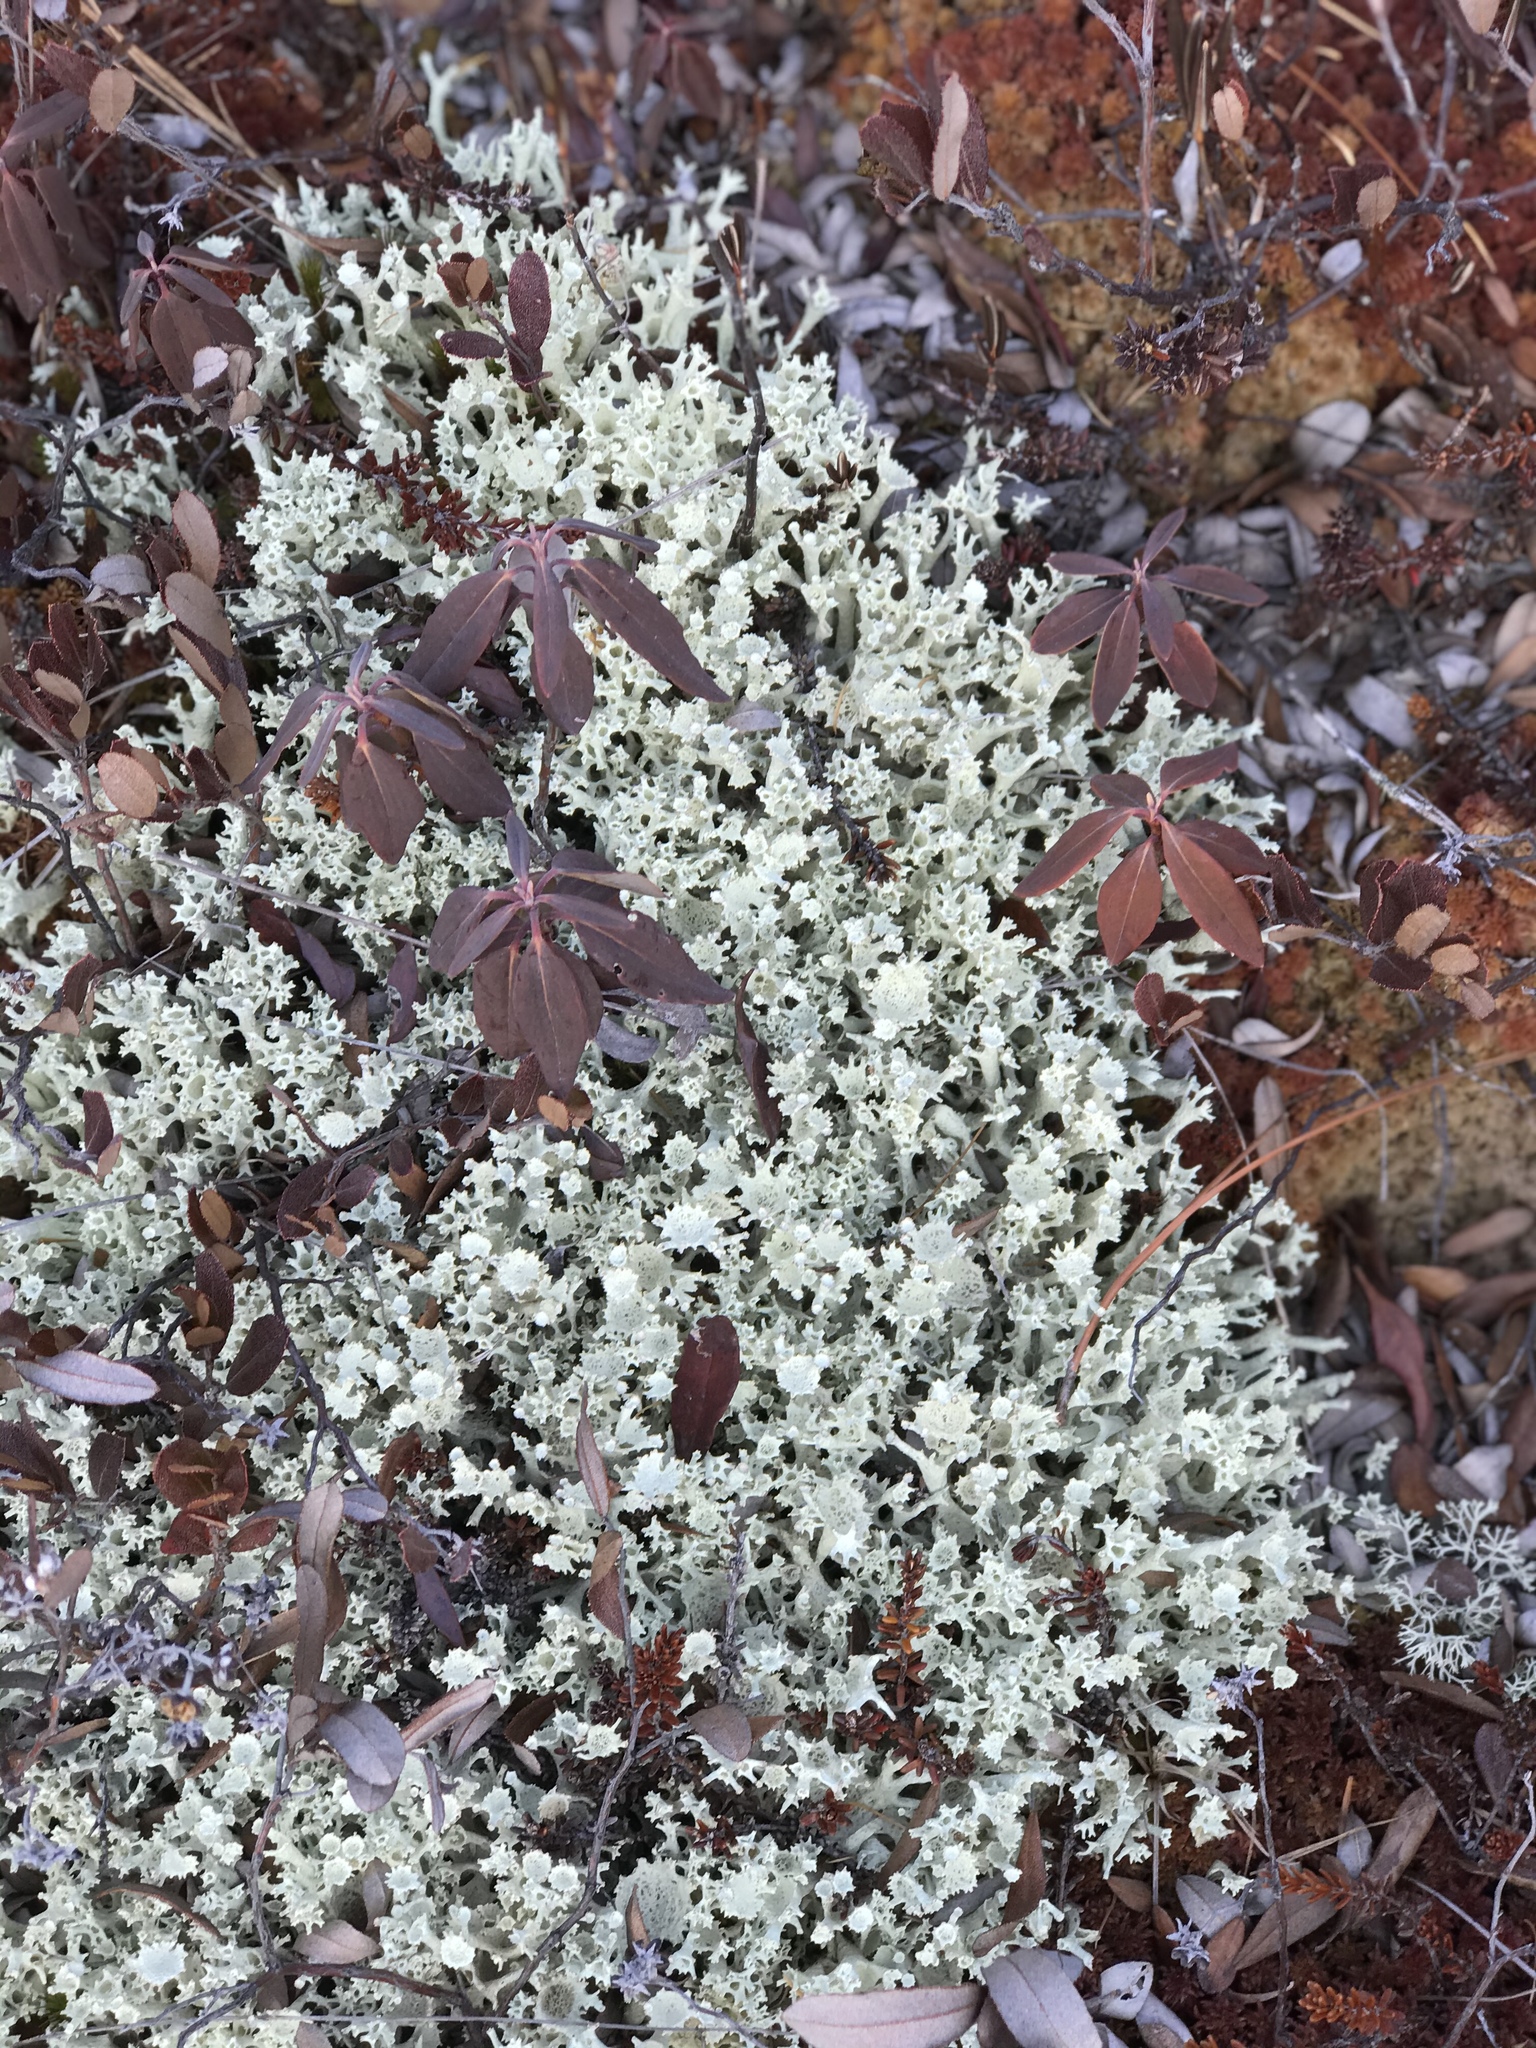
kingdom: Fungi
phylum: Ascomycota
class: Lecanoromycetes
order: Lecanorales
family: Cladoniaceae
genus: Cladonia
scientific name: Cladonia multiformis
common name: Sieve lichen
